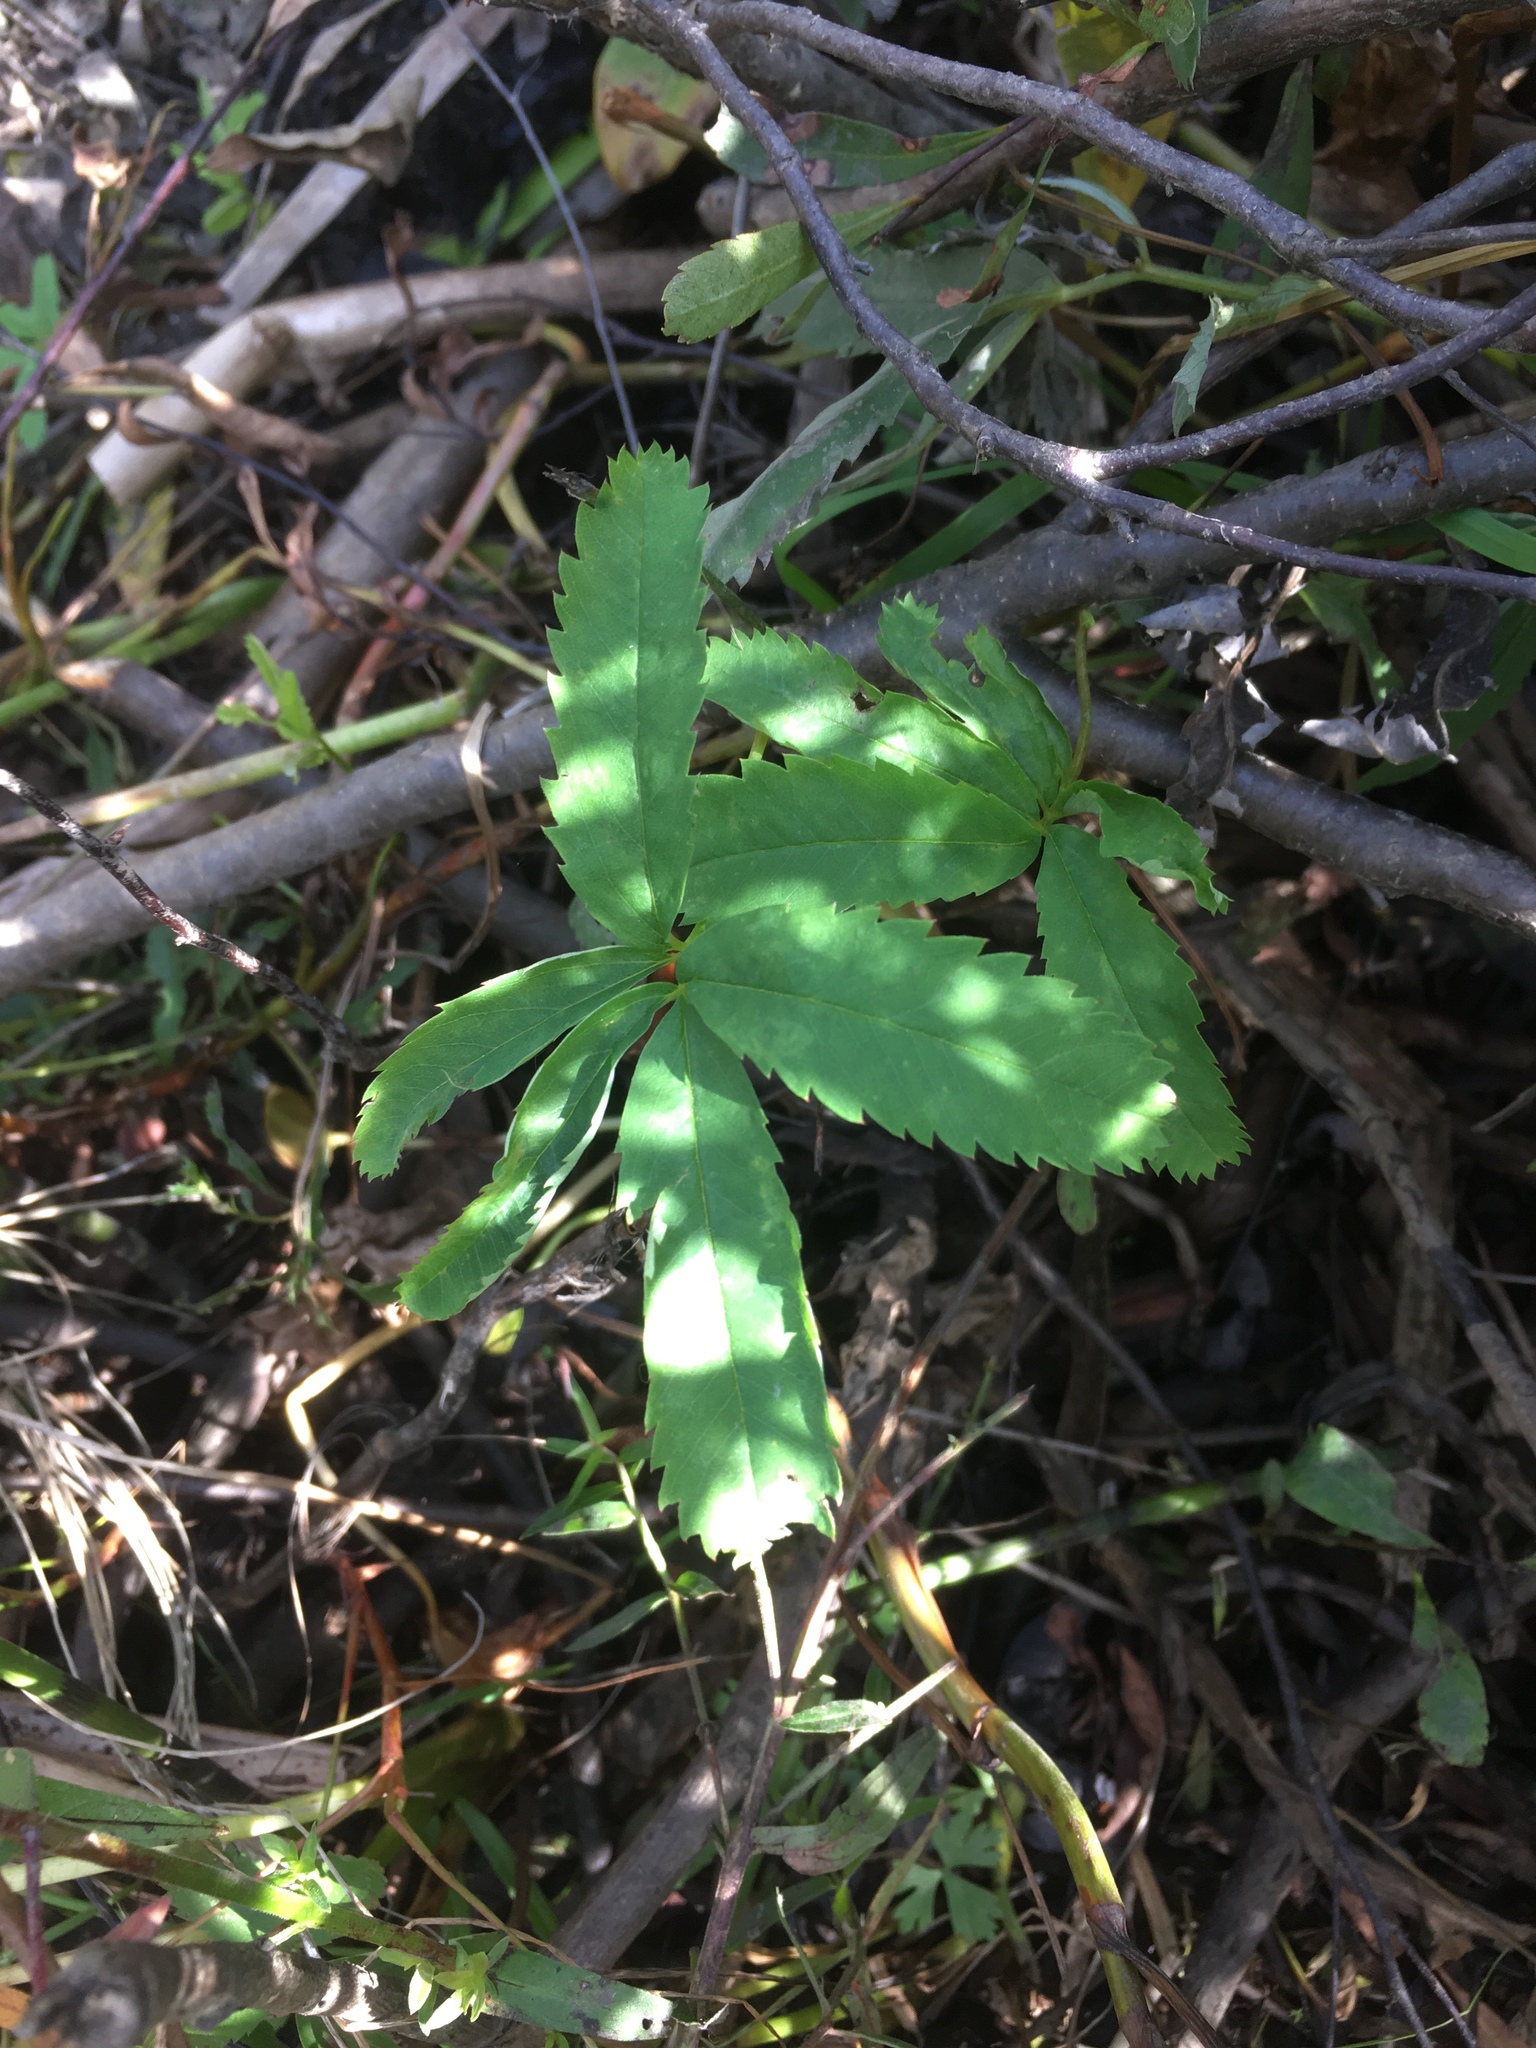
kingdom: Plantae
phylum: Tracheophyta
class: Magnoliopsida
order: Rosales
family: Rosaceae
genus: Comarum
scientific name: Comarum palustre
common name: Marsh cinquefoil
